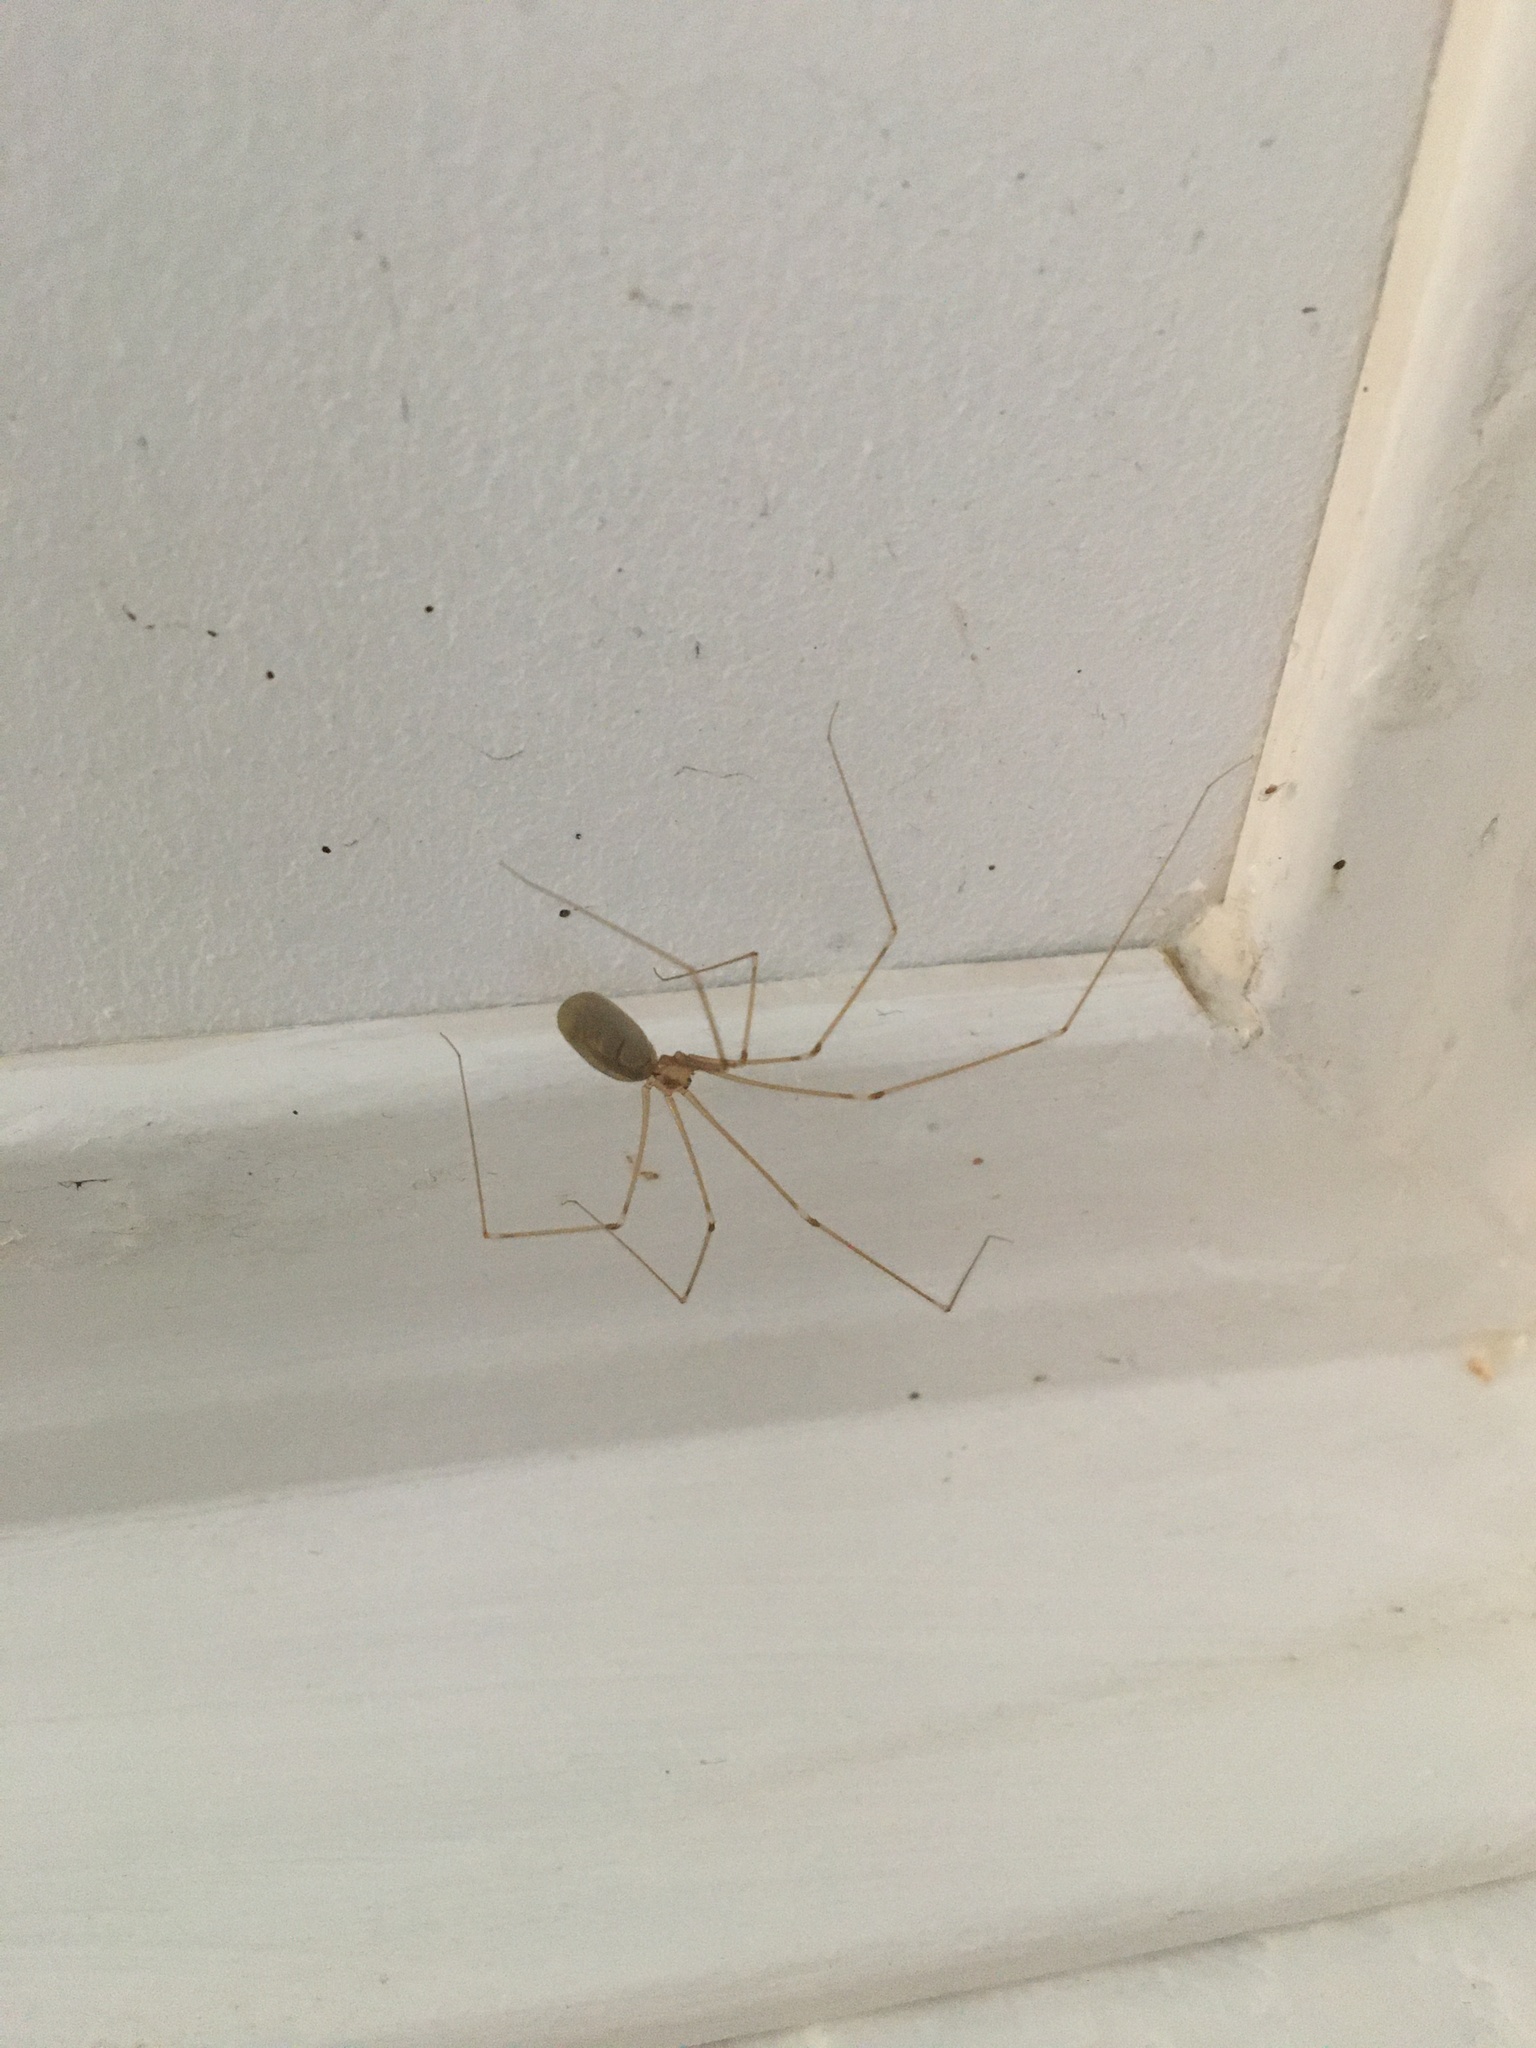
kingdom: Animalia
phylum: Arthropoda
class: Arachnida
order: Araneae
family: Pholcidae
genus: Pholcus
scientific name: Pholcus phalangioides
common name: Longbodied cellar spider
